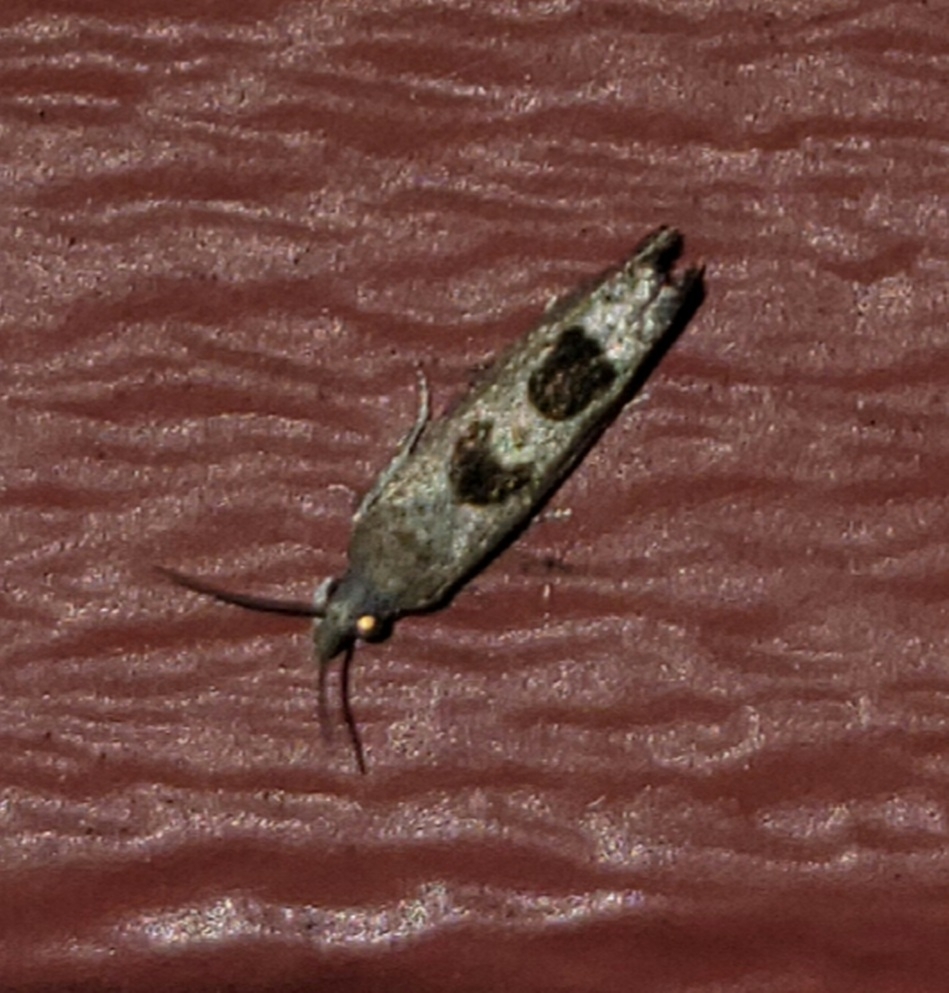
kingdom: Animalia
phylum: Arthropoda
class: Insecta
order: Lepidoptera
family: Tortricidae
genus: Eucosma
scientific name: Eucosma tomonana
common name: Aster-head eucosma moth
